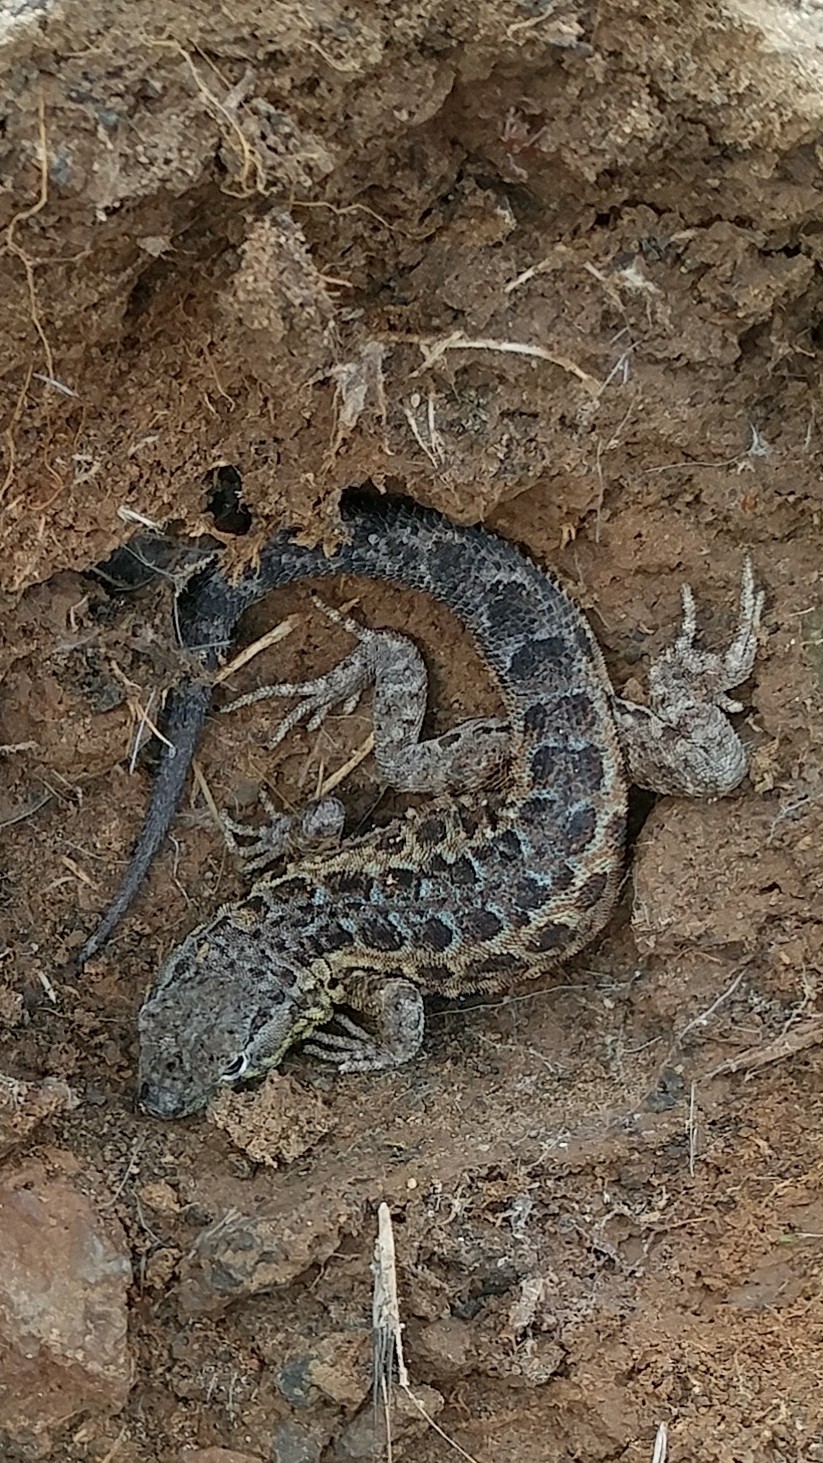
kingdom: Animalia
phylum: Chordata
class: Squamata
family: Phrynosomatidae
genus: Uta
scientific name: Uta stansburiana
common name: Side-blotched lizard
